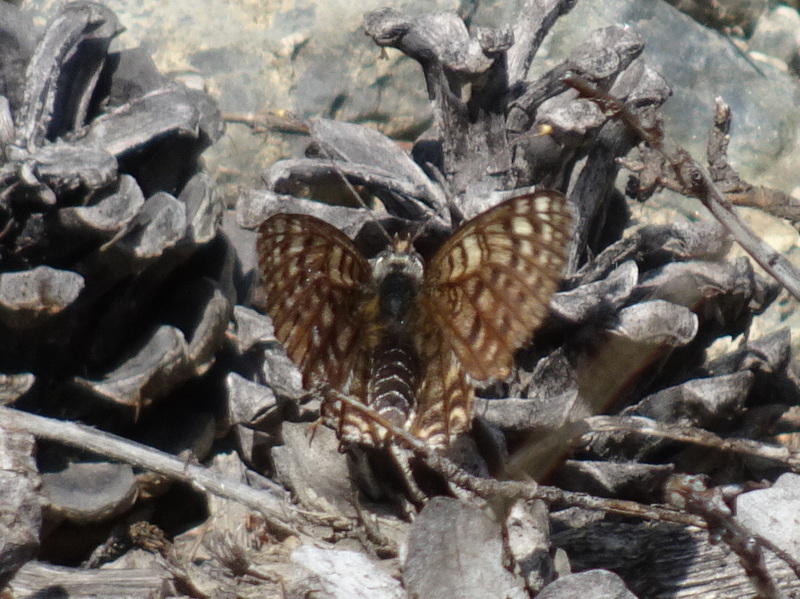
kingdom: Animalia
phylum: Arthropoda
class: Insecta
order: Lepidoptera
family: Nymphalidae
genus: Melitaea
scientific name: Melitaea didyma
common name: Spotted fritillary
